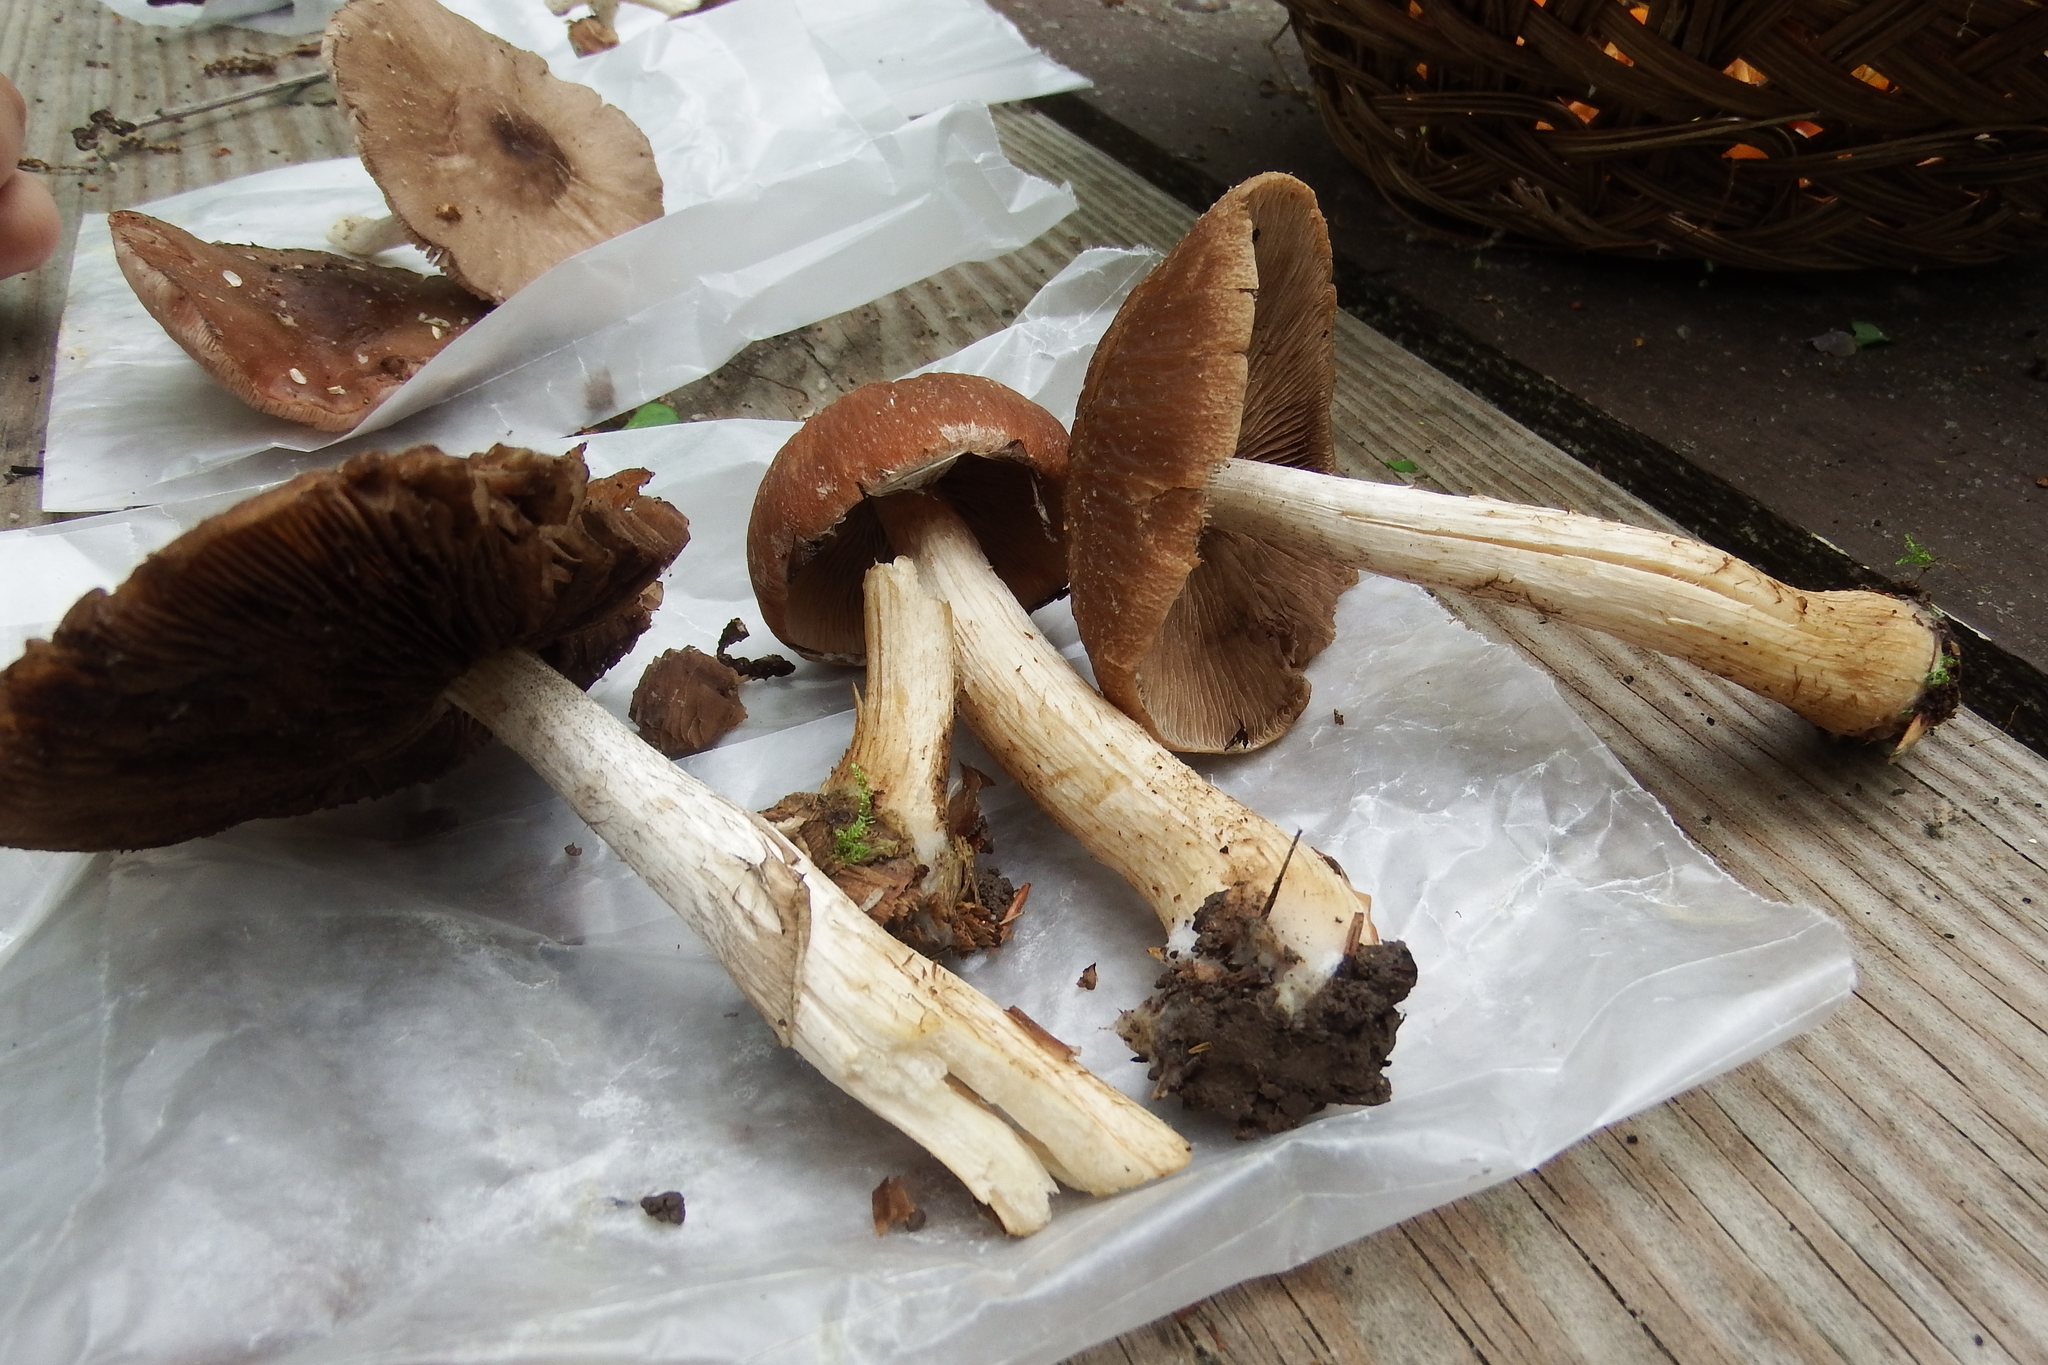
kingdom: Fungi
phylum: Basidiomycota
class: Agaricomycetes
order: Agaricales
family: Psathyrellaceae
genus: Typhrasa
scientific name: Typhrasa gossypina
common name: Wrinkled psathyrella
